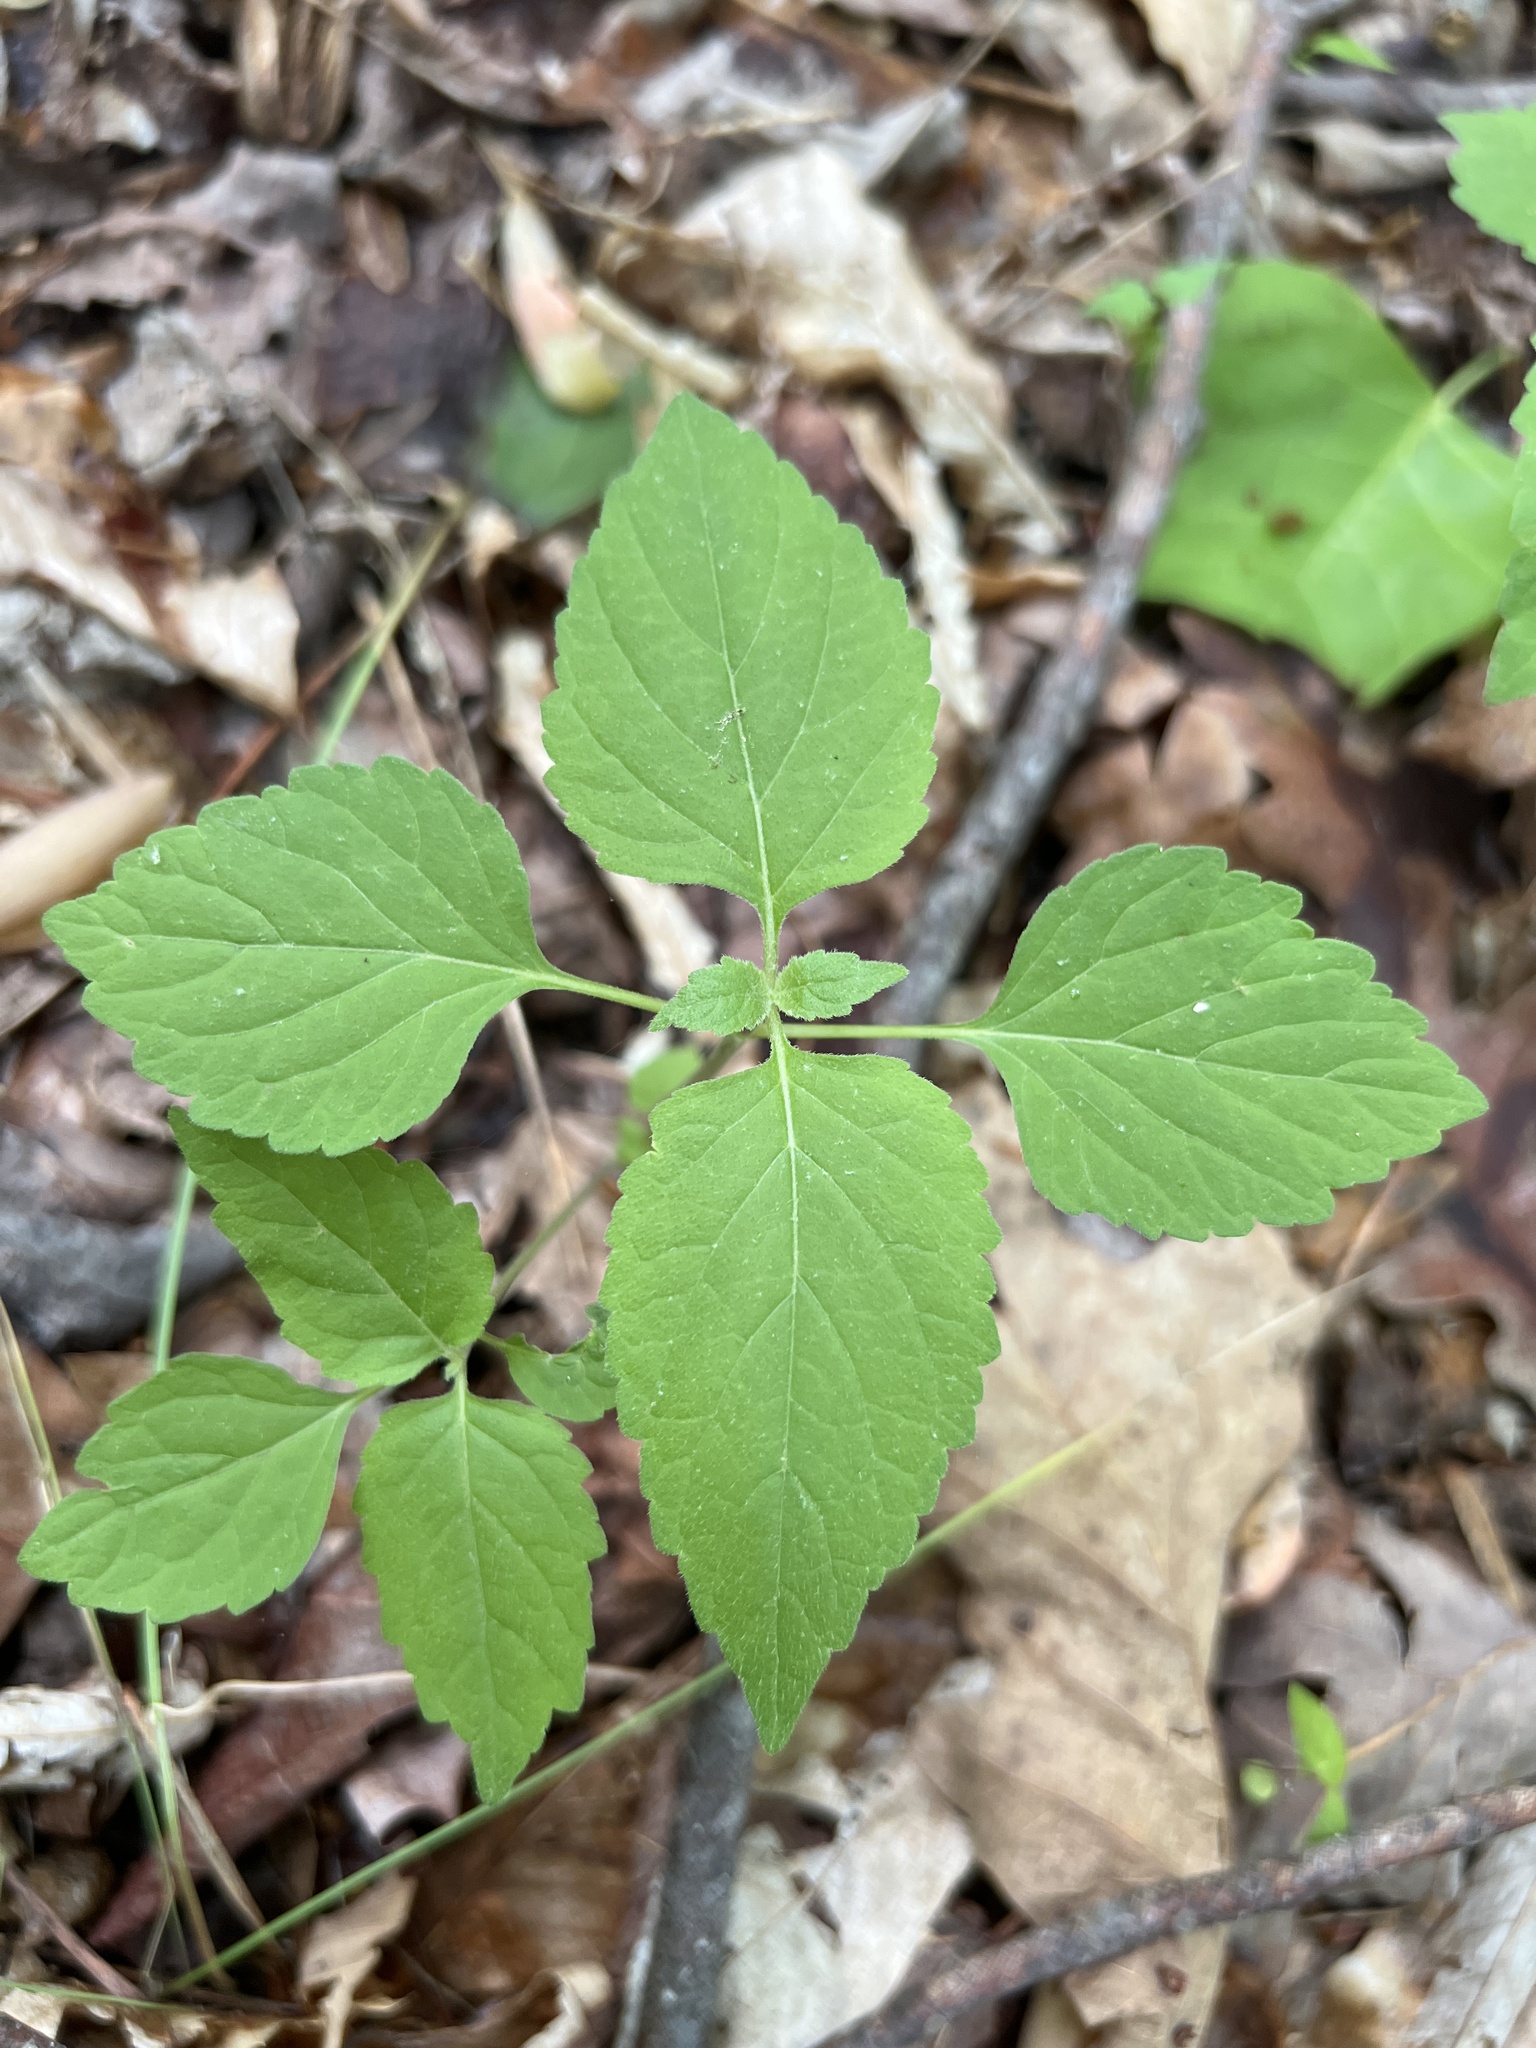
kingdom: Plantae
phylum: Tracheophyta
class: Magnoliopsida
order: Lamiales
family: Phrymaceae
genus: Phryma
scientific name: Phryma leptostachya
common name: American lopseed
